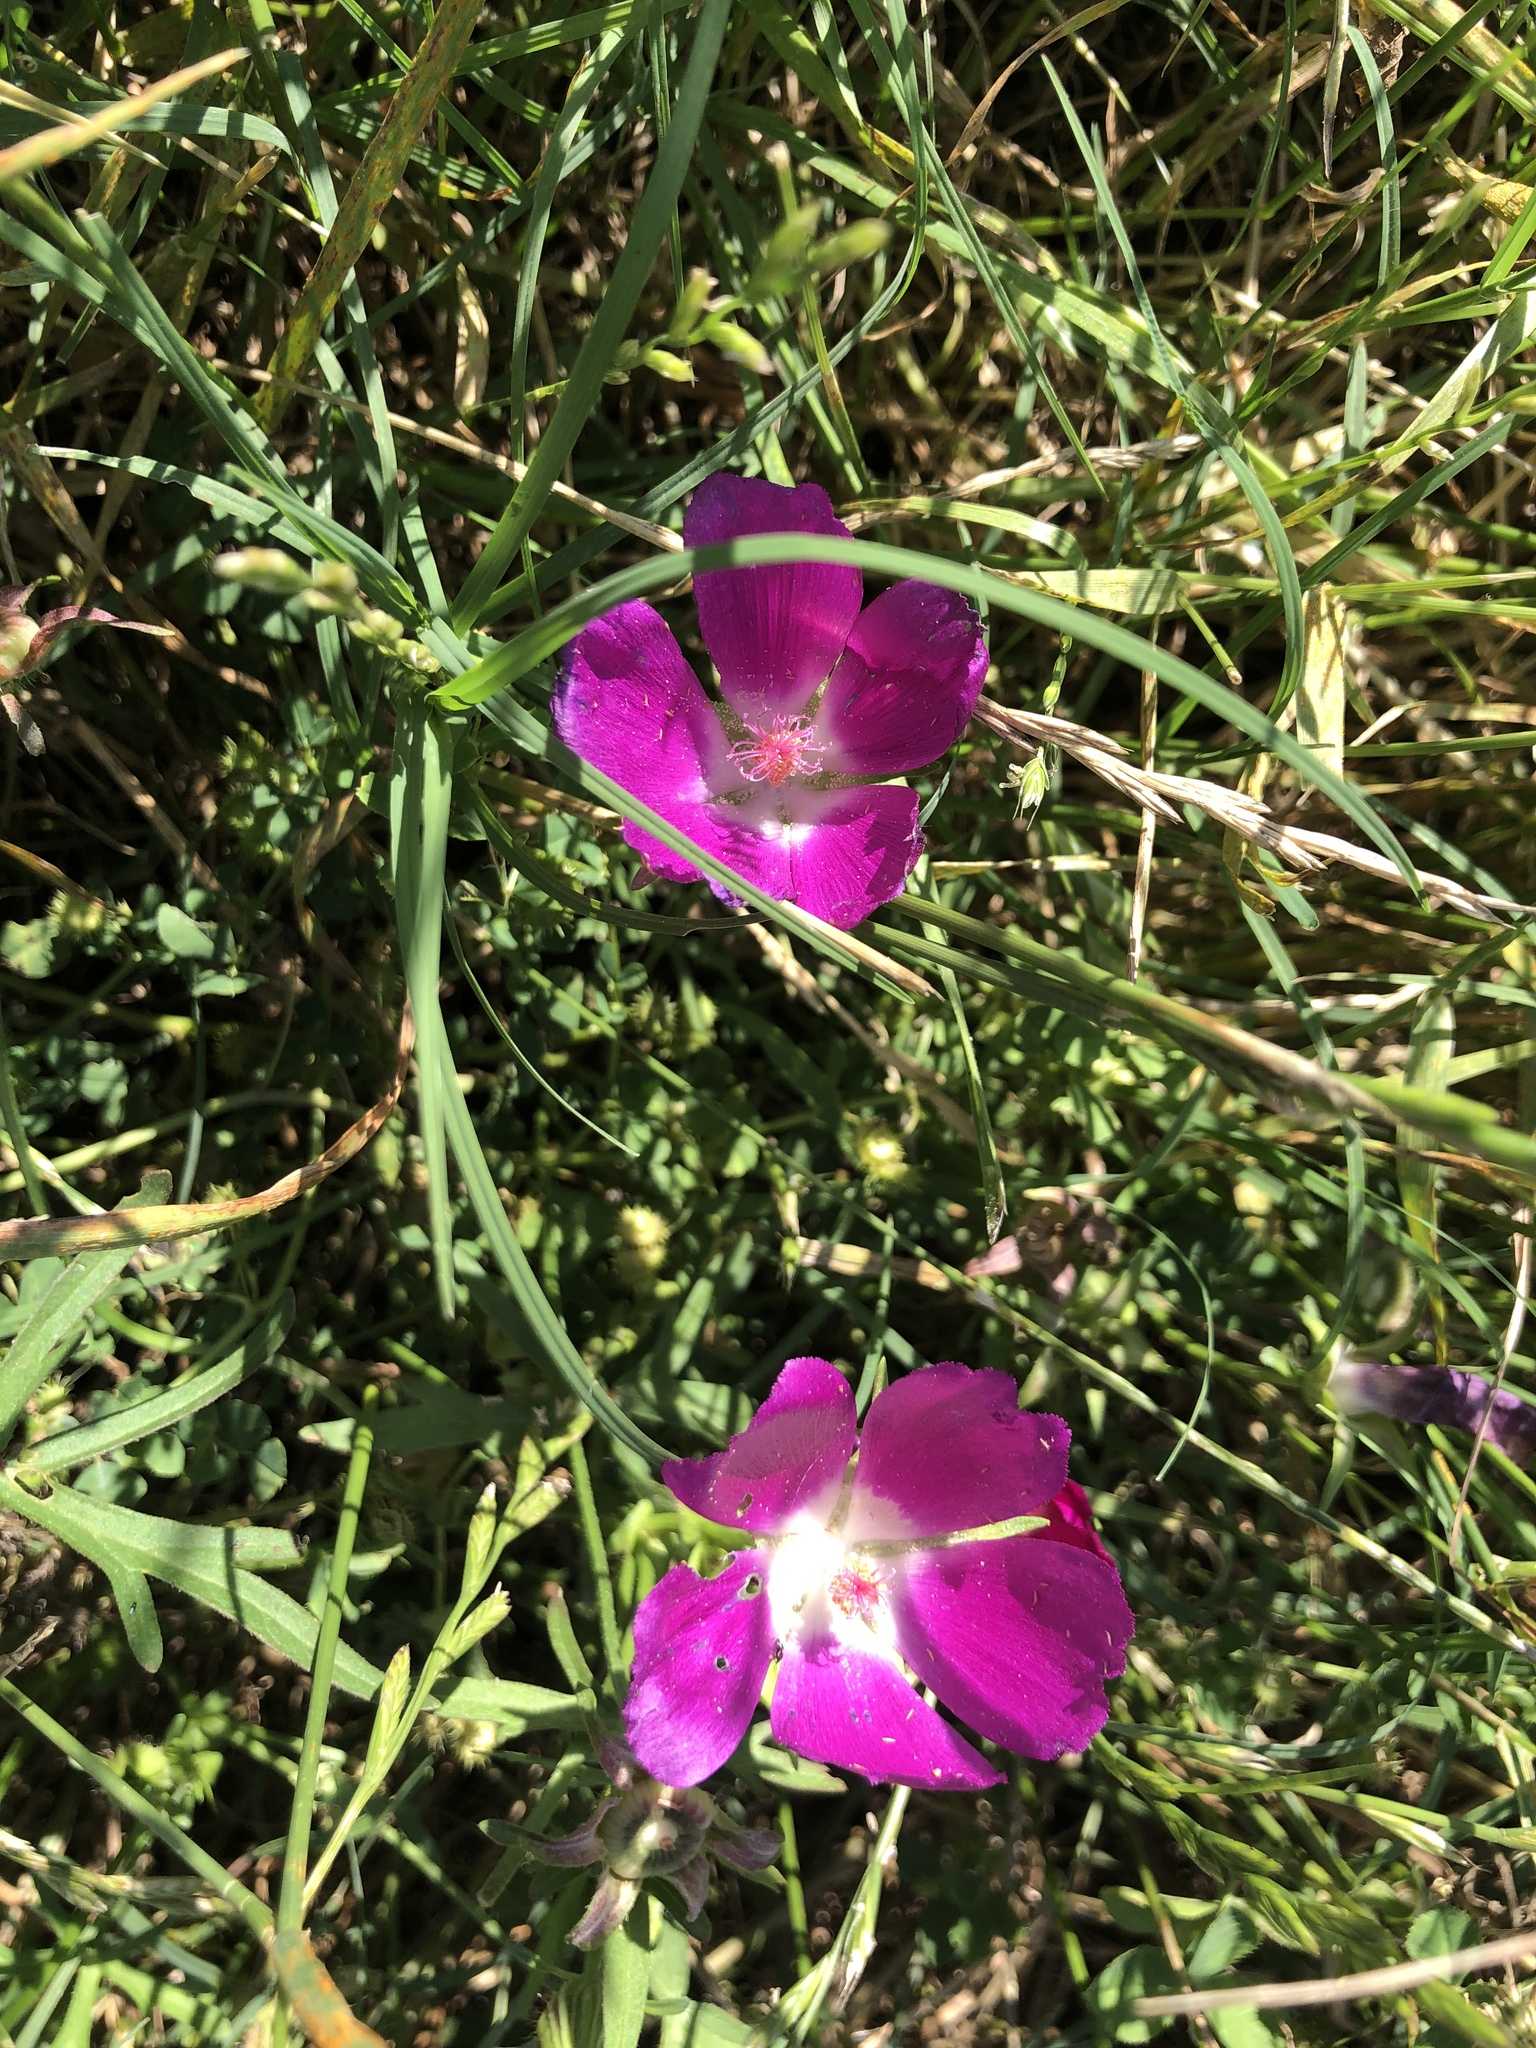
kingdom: Plantae
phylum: Tracheophyta
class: Magnoliopsida
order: Malvales
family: Malvaceae
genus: Callirhoe
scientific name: Callirhoe involucrata
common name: Purple poppy-mallow
